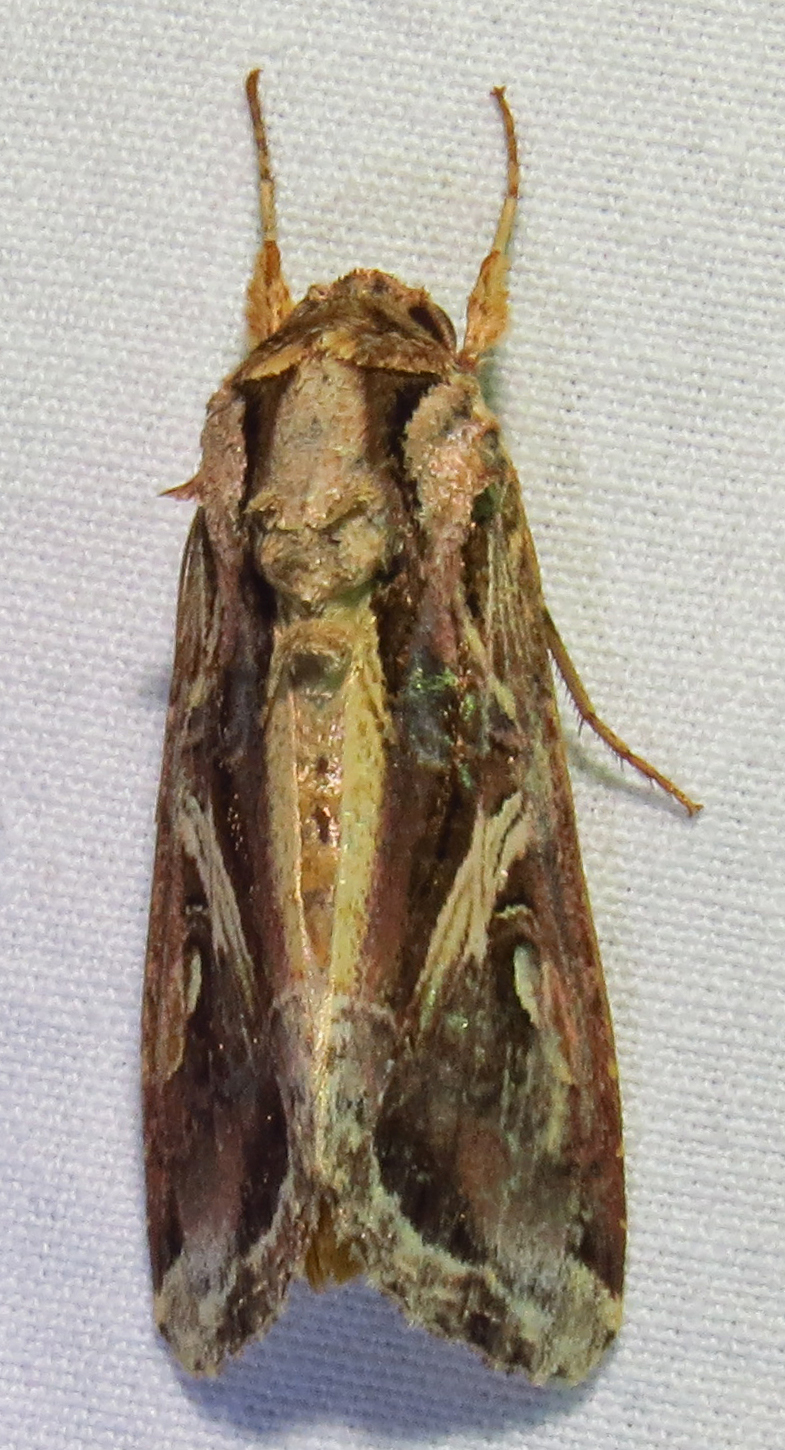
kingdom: Animalia
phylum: Arthropoda
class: Insecta
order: Lepidoptera
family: Noctuidae
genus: Spodoptera
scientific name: Spodoptera dolichos
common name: Sweetpotato armyworm
